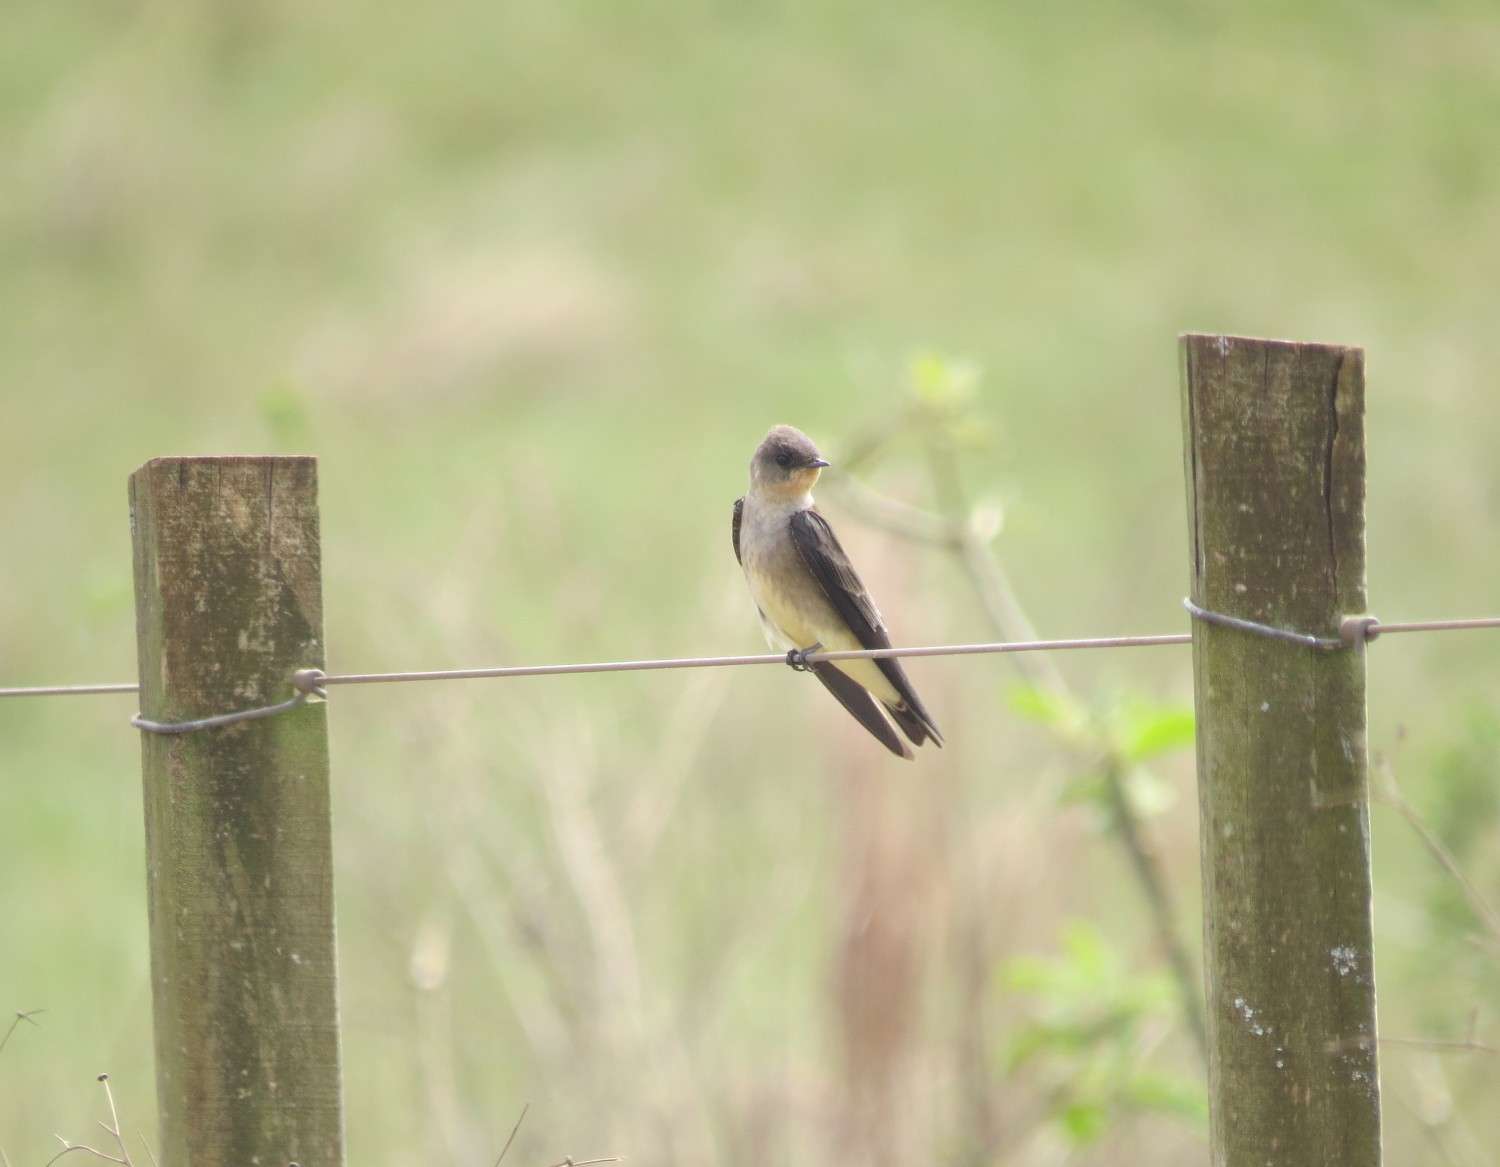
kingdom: Animalia
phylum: Chordata
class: Aves
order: Passeriformes
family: Hirundinidae
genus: Stelgidopteryx
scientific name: Stelgidopteryx ruficollis
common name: Southern rough-winged swallow
